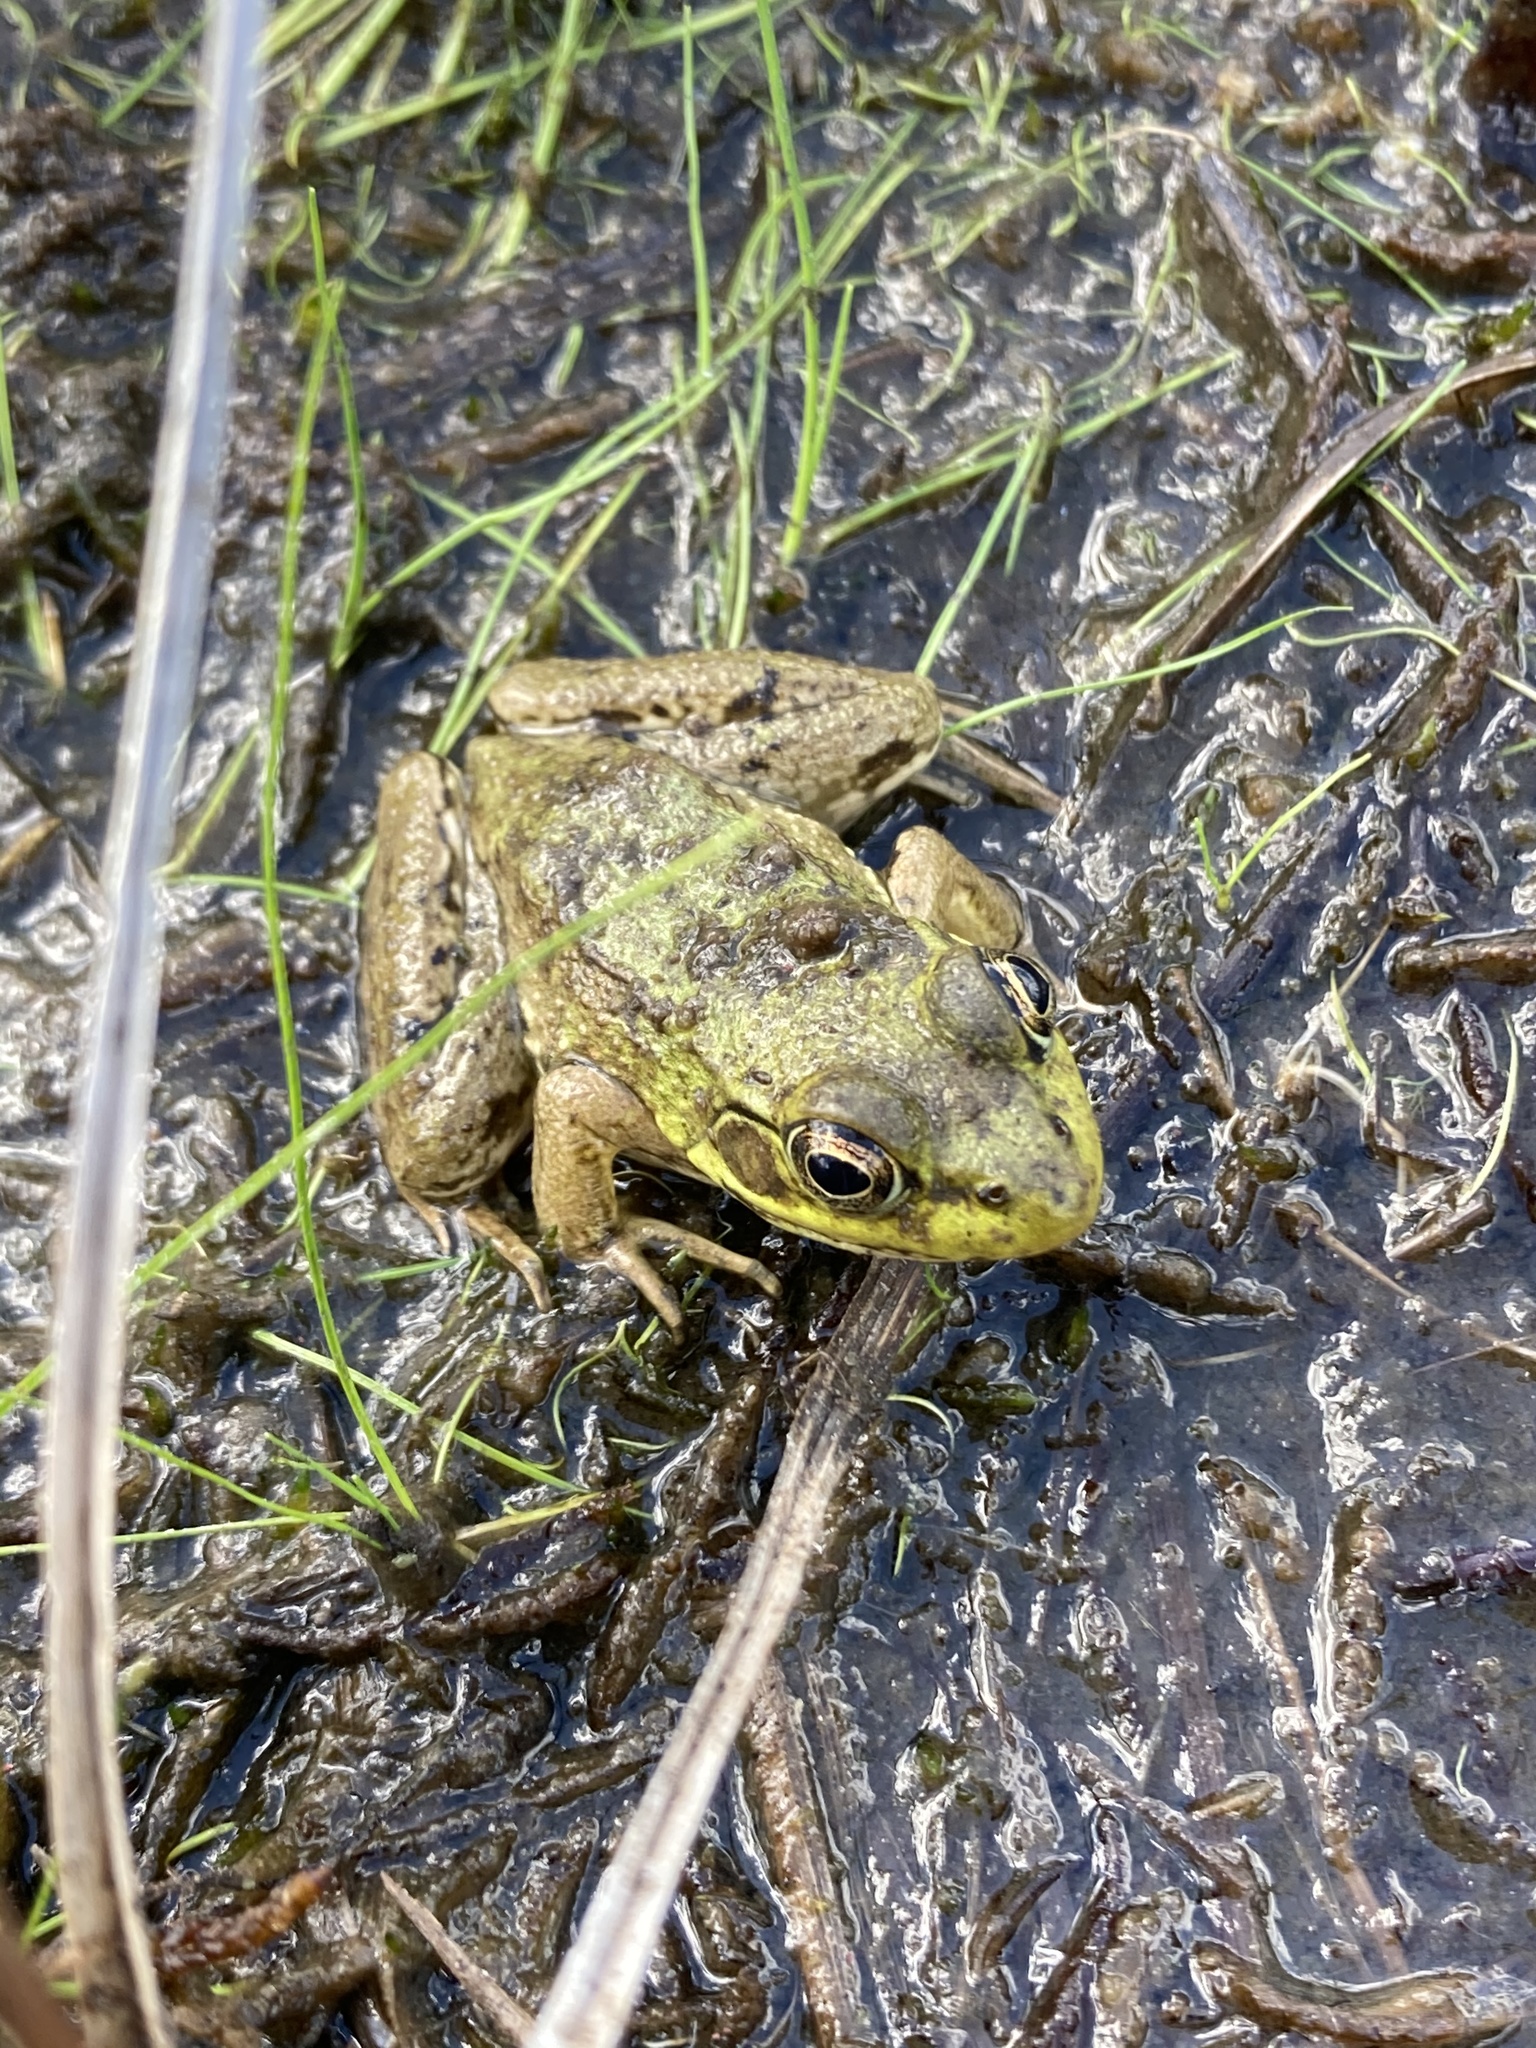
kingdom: Animalia
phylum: Chordata
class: Amphibia
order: Anura
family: Ranidae
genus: Lithobates
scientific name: Lithobates clamitans
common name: Green frog
